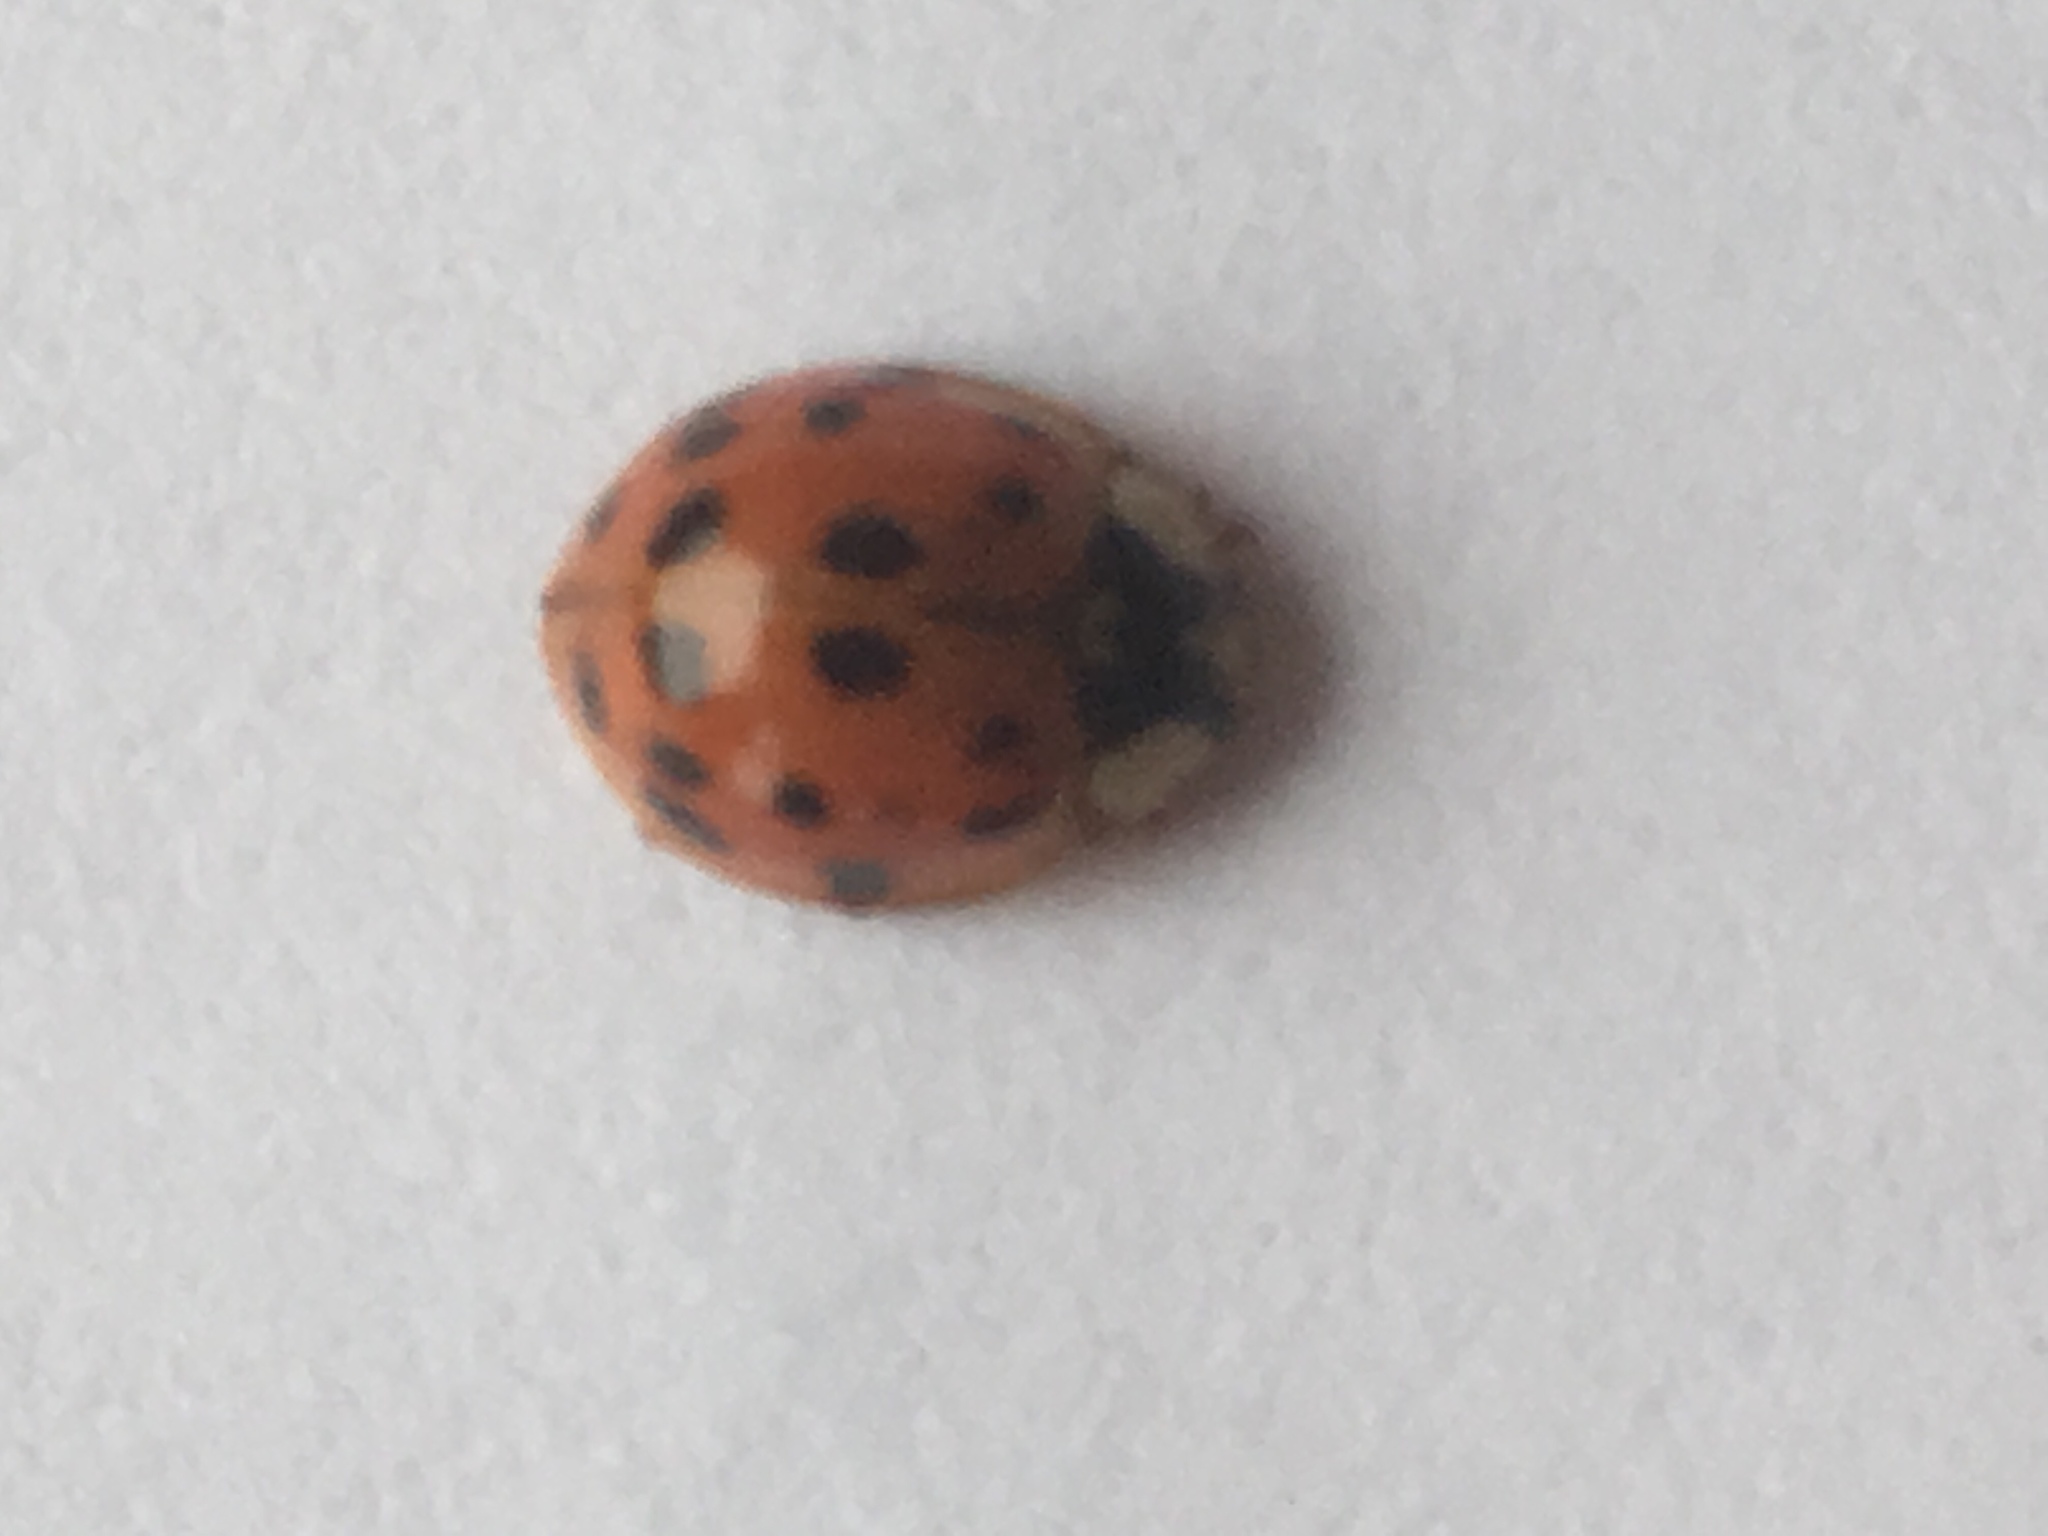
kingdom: Animalia
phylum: Arthropoda
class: Insecta
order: Coleoptera
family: Coccinellidae
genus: Harmonia
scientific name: Harmonia axyridis
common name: Harlequin ladybird
